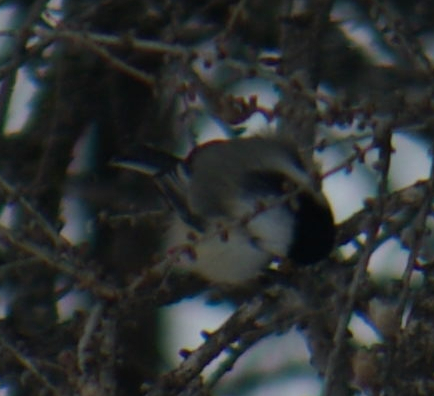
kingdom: Animalia
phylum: Chordata
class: Aves
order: Passeriformes
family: Paridae
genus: Poecile
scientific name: Poecile atricapillus
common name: Black-capped chickadee
